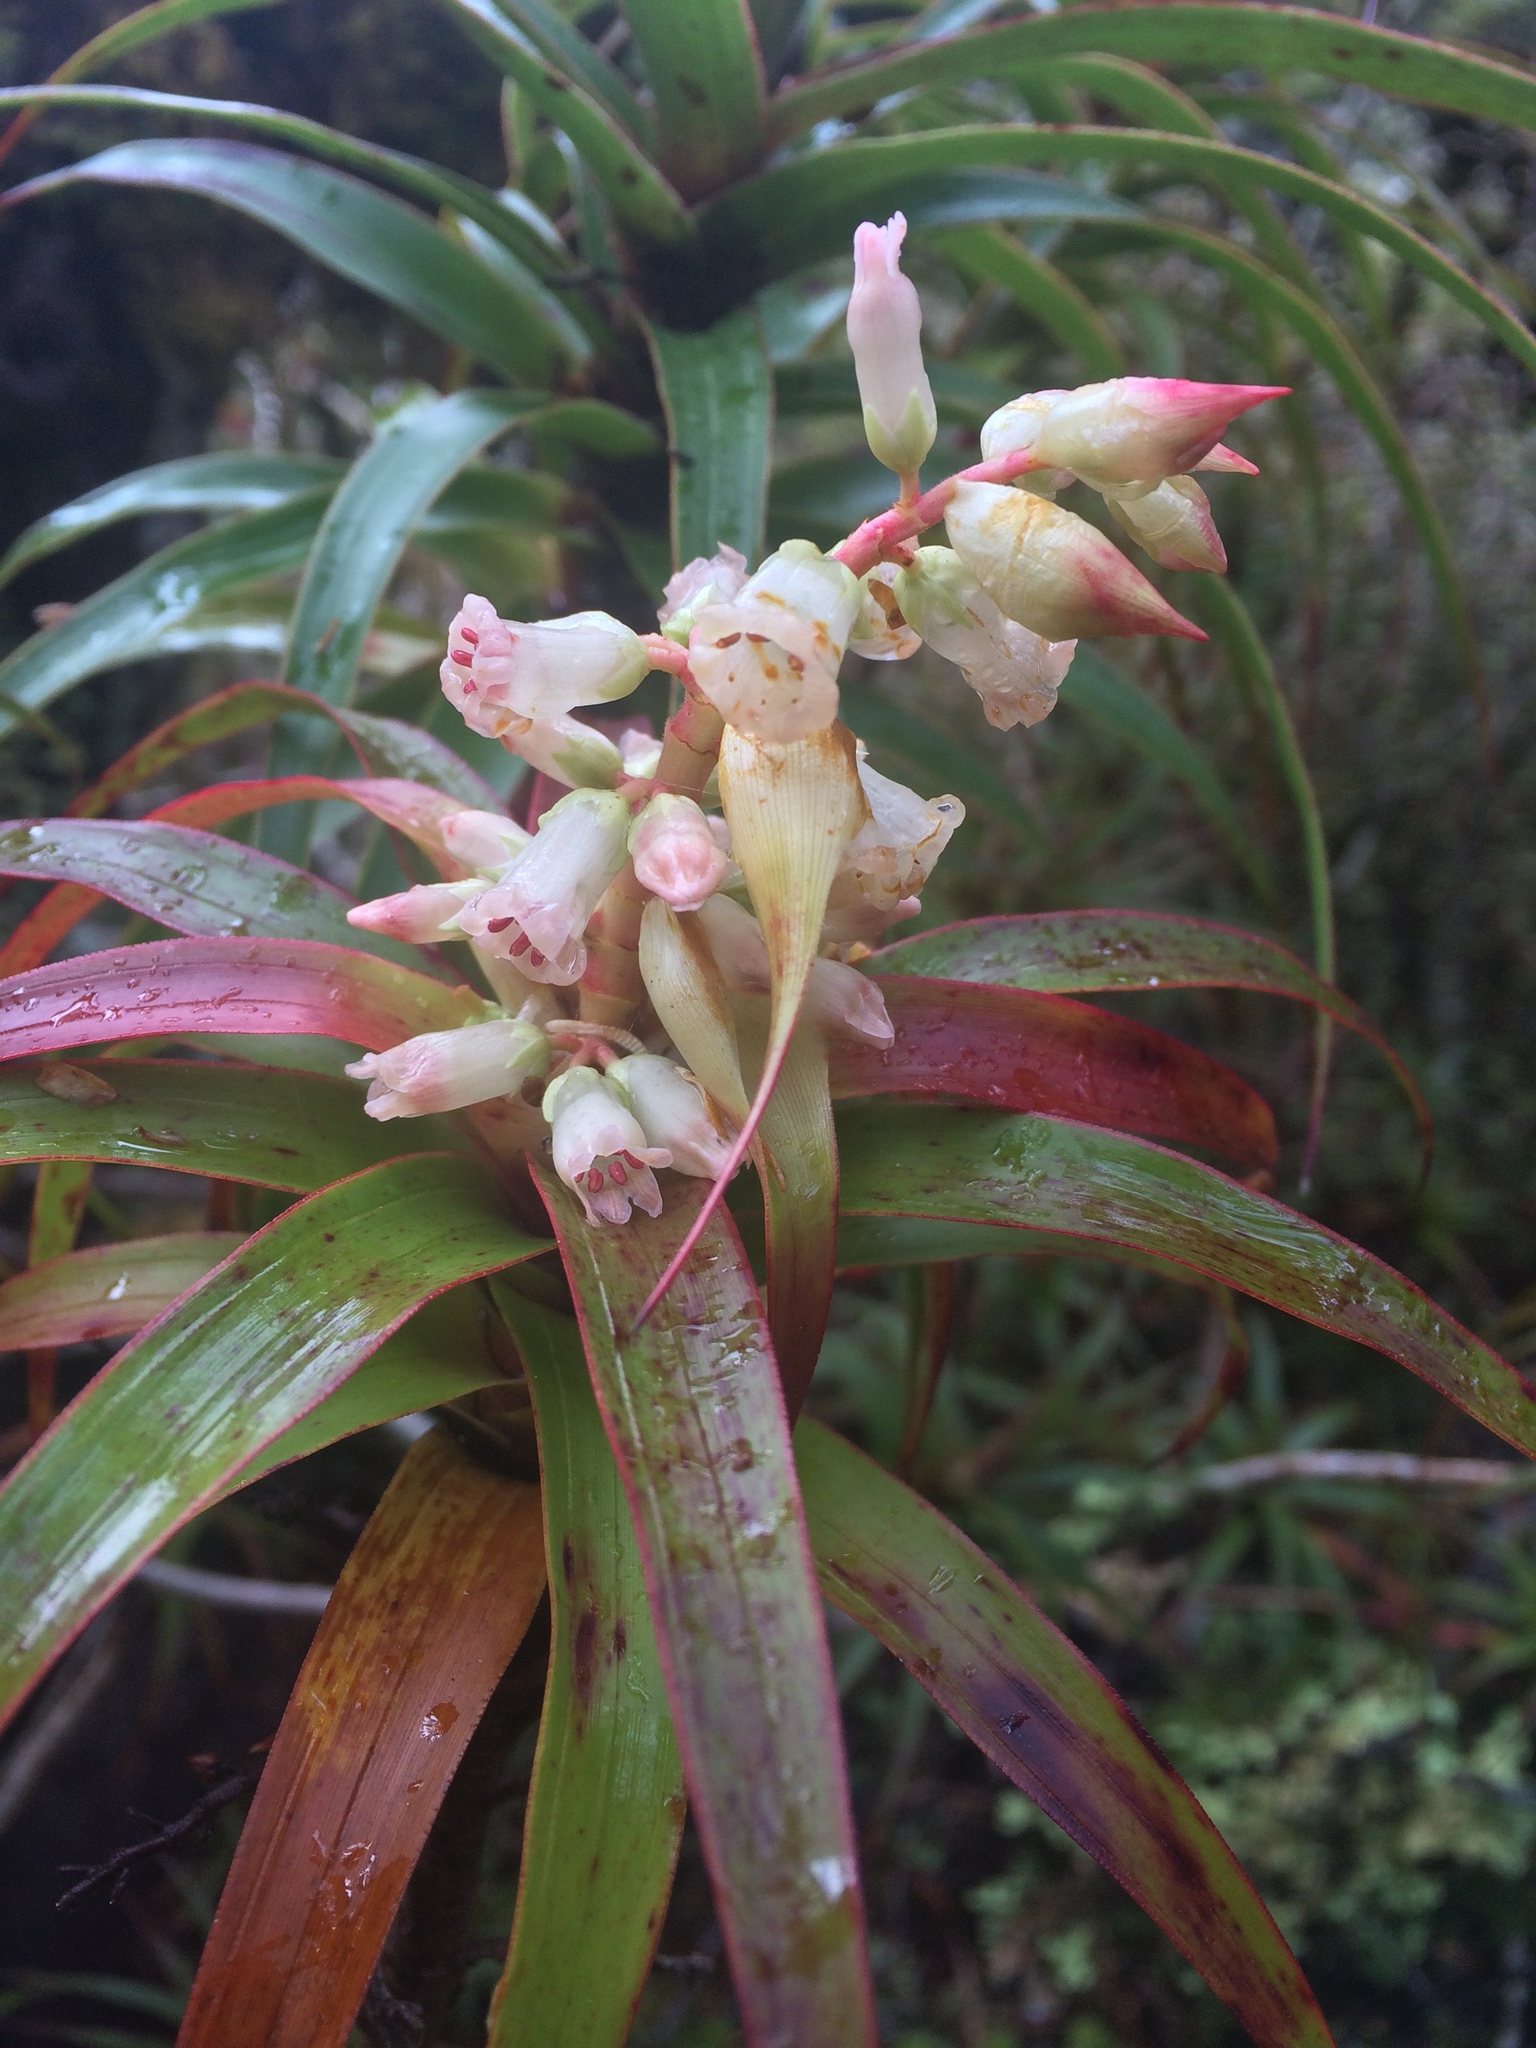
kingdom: Plantae
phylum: Tracheophyta
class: Magnoliopsida
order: Ericales
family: Ericaceae
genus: Dracophyllum
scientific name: Dracophyllum menziesii
